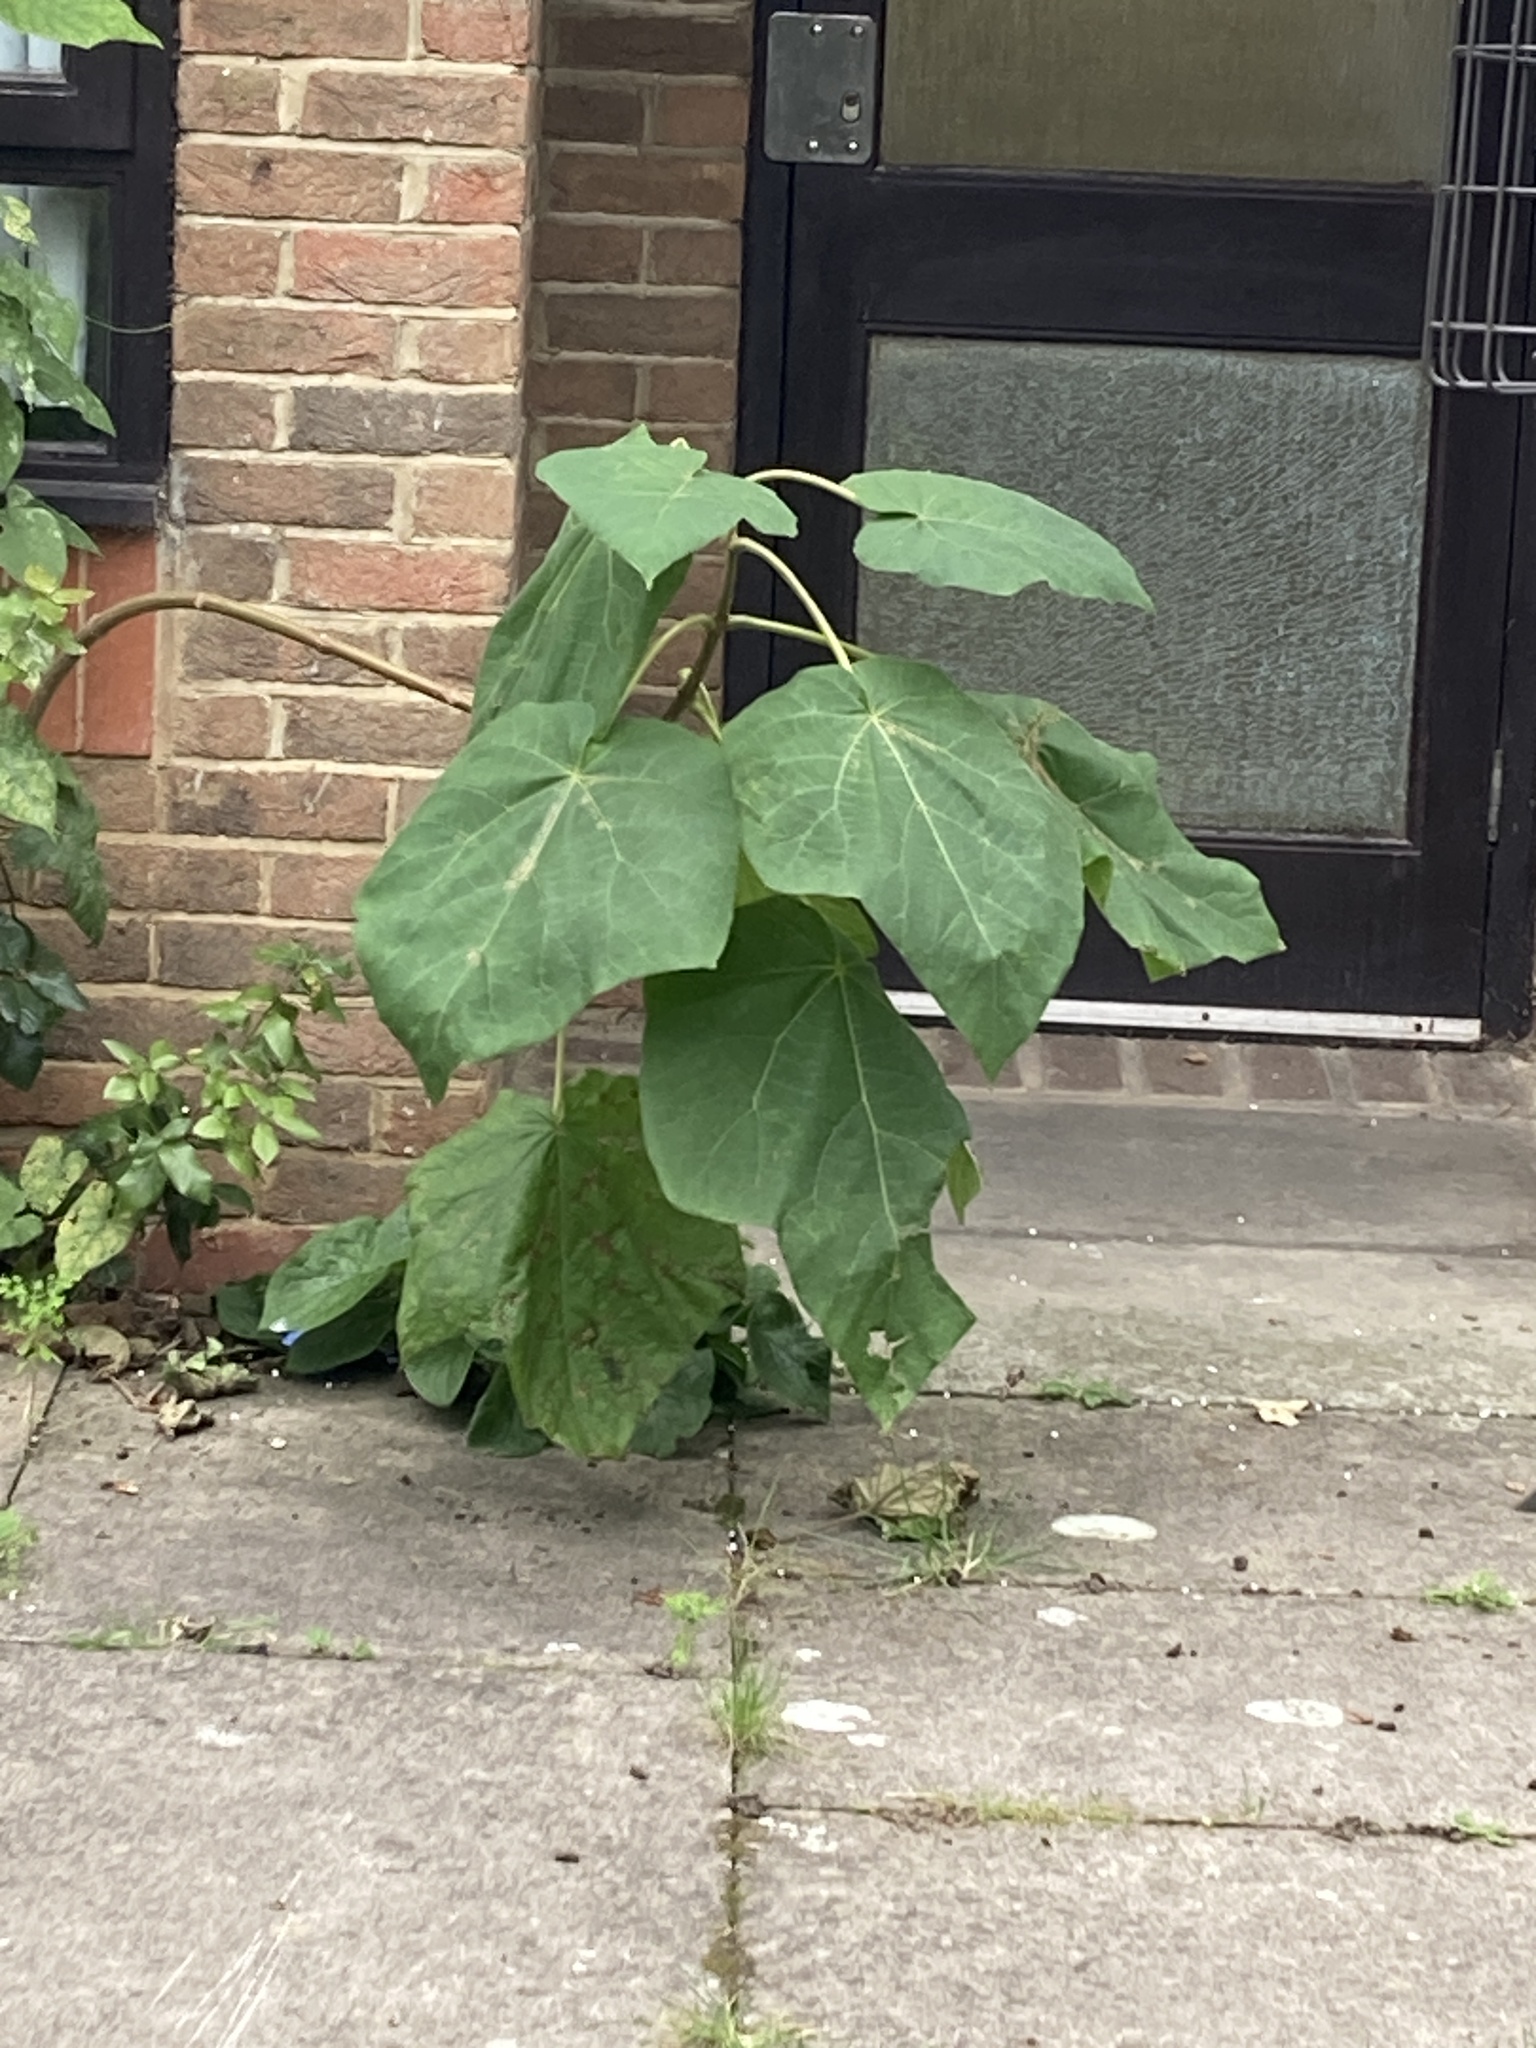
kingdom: Plantae
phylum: Tracheophyta
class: Magnoliopsida
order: Lamiales
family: Paulowniaceae
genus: Paulownia
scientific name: Paulownia tomentosa
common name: Foxglove-tree
